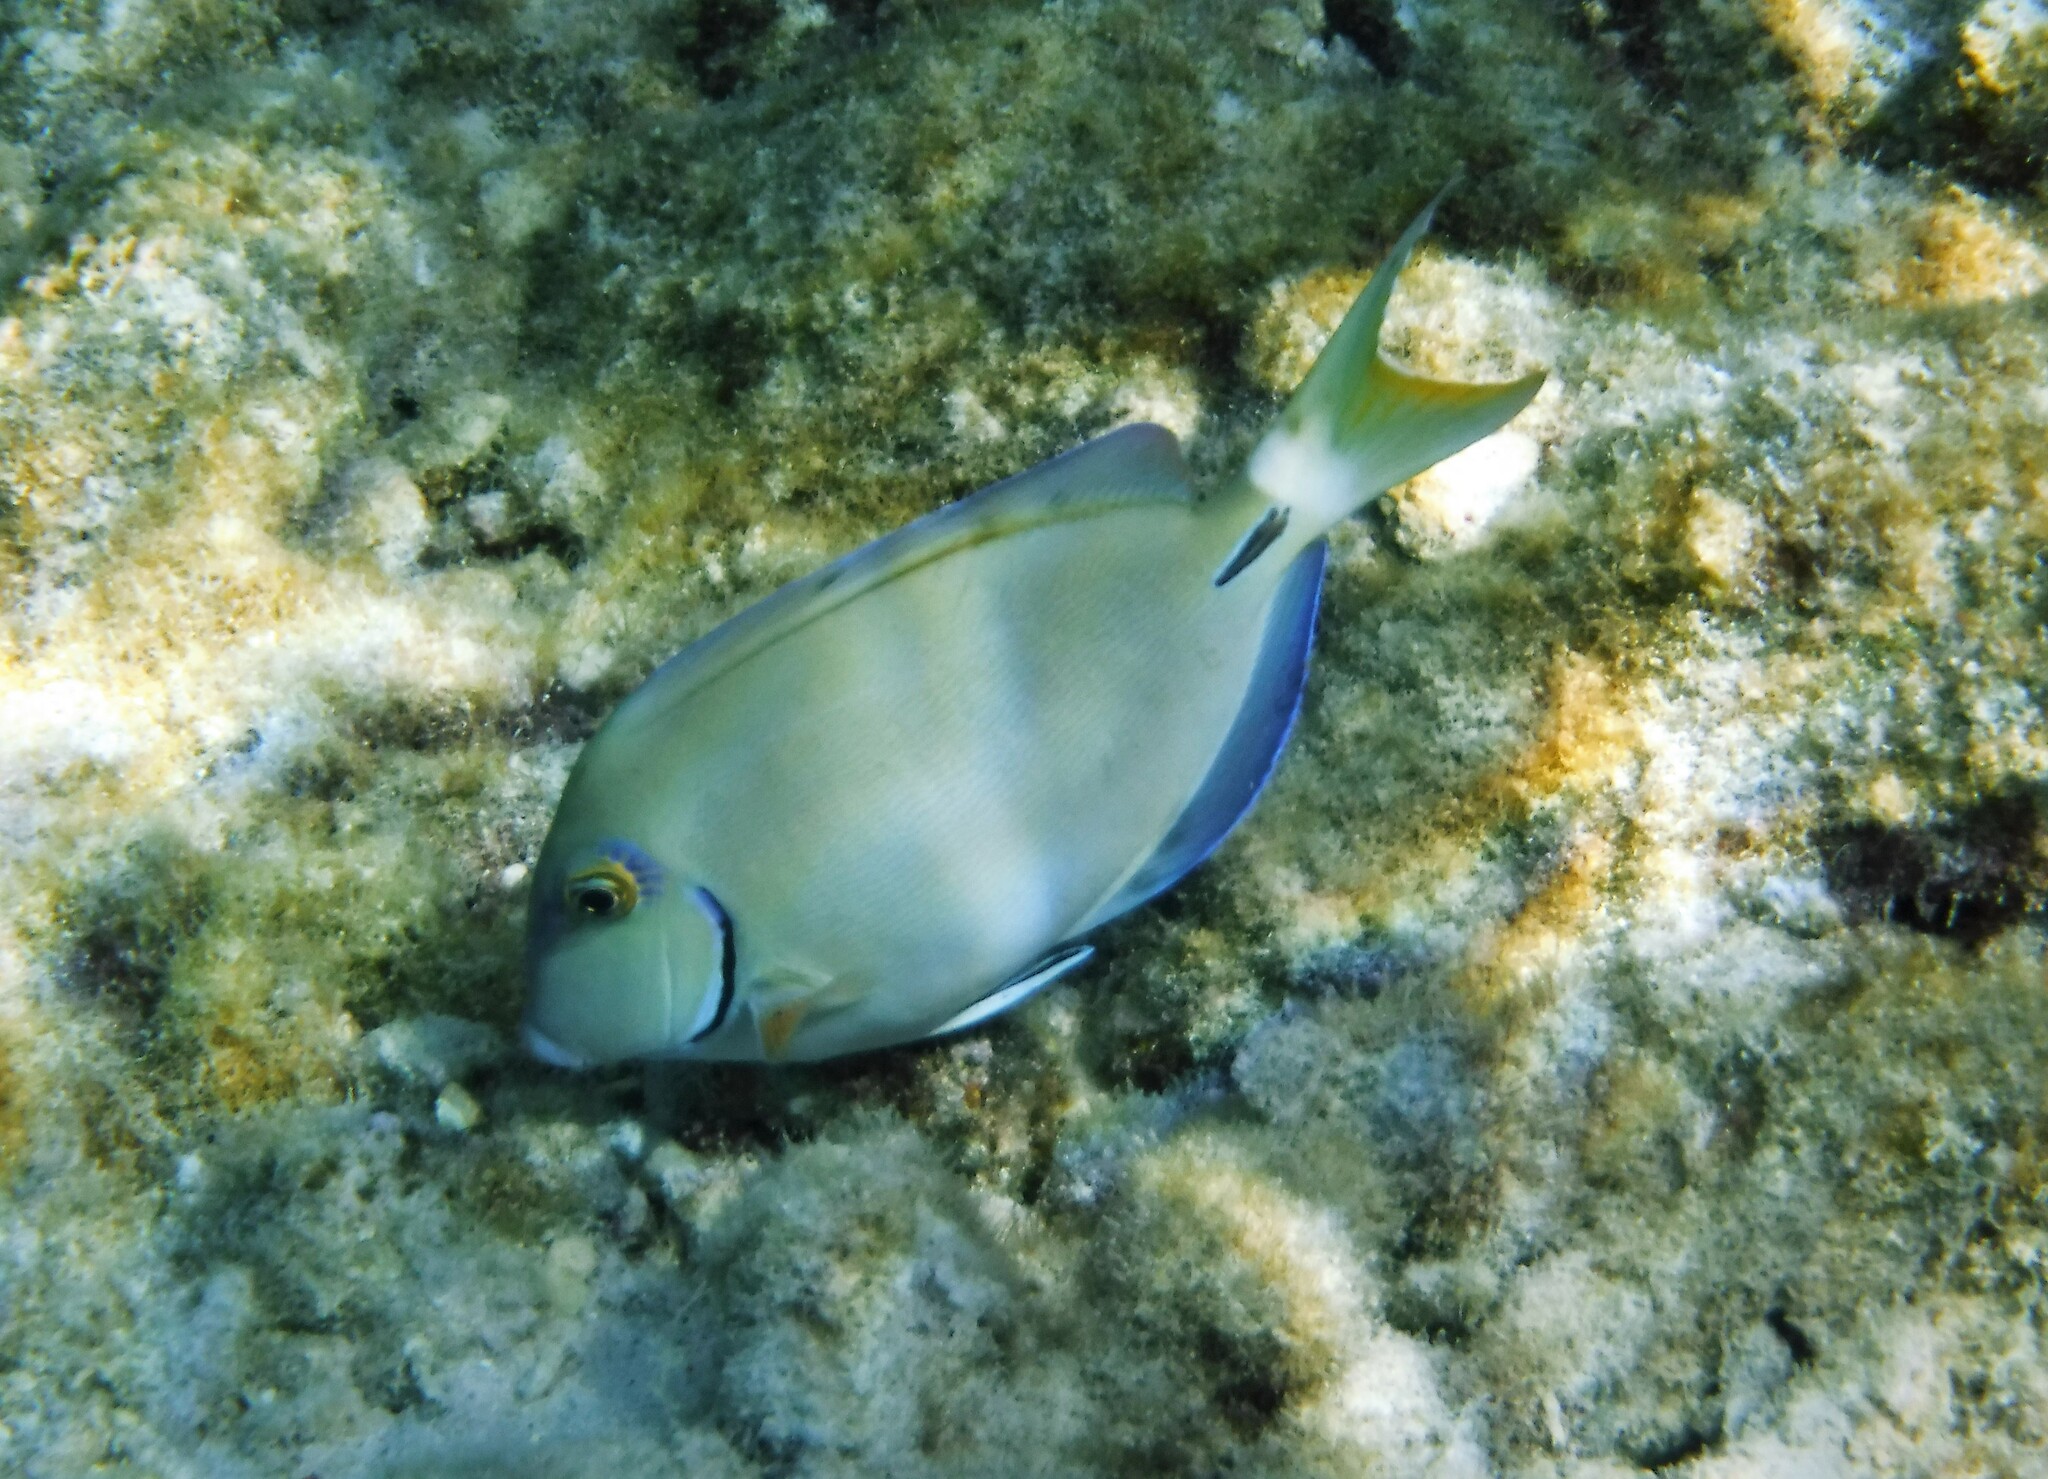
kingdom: Animalia
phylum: Chordata
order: Perciformes
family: Acanthuridae
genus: Acanthurus
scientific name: Acanthurus bahianus
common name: Ocean surgeon
